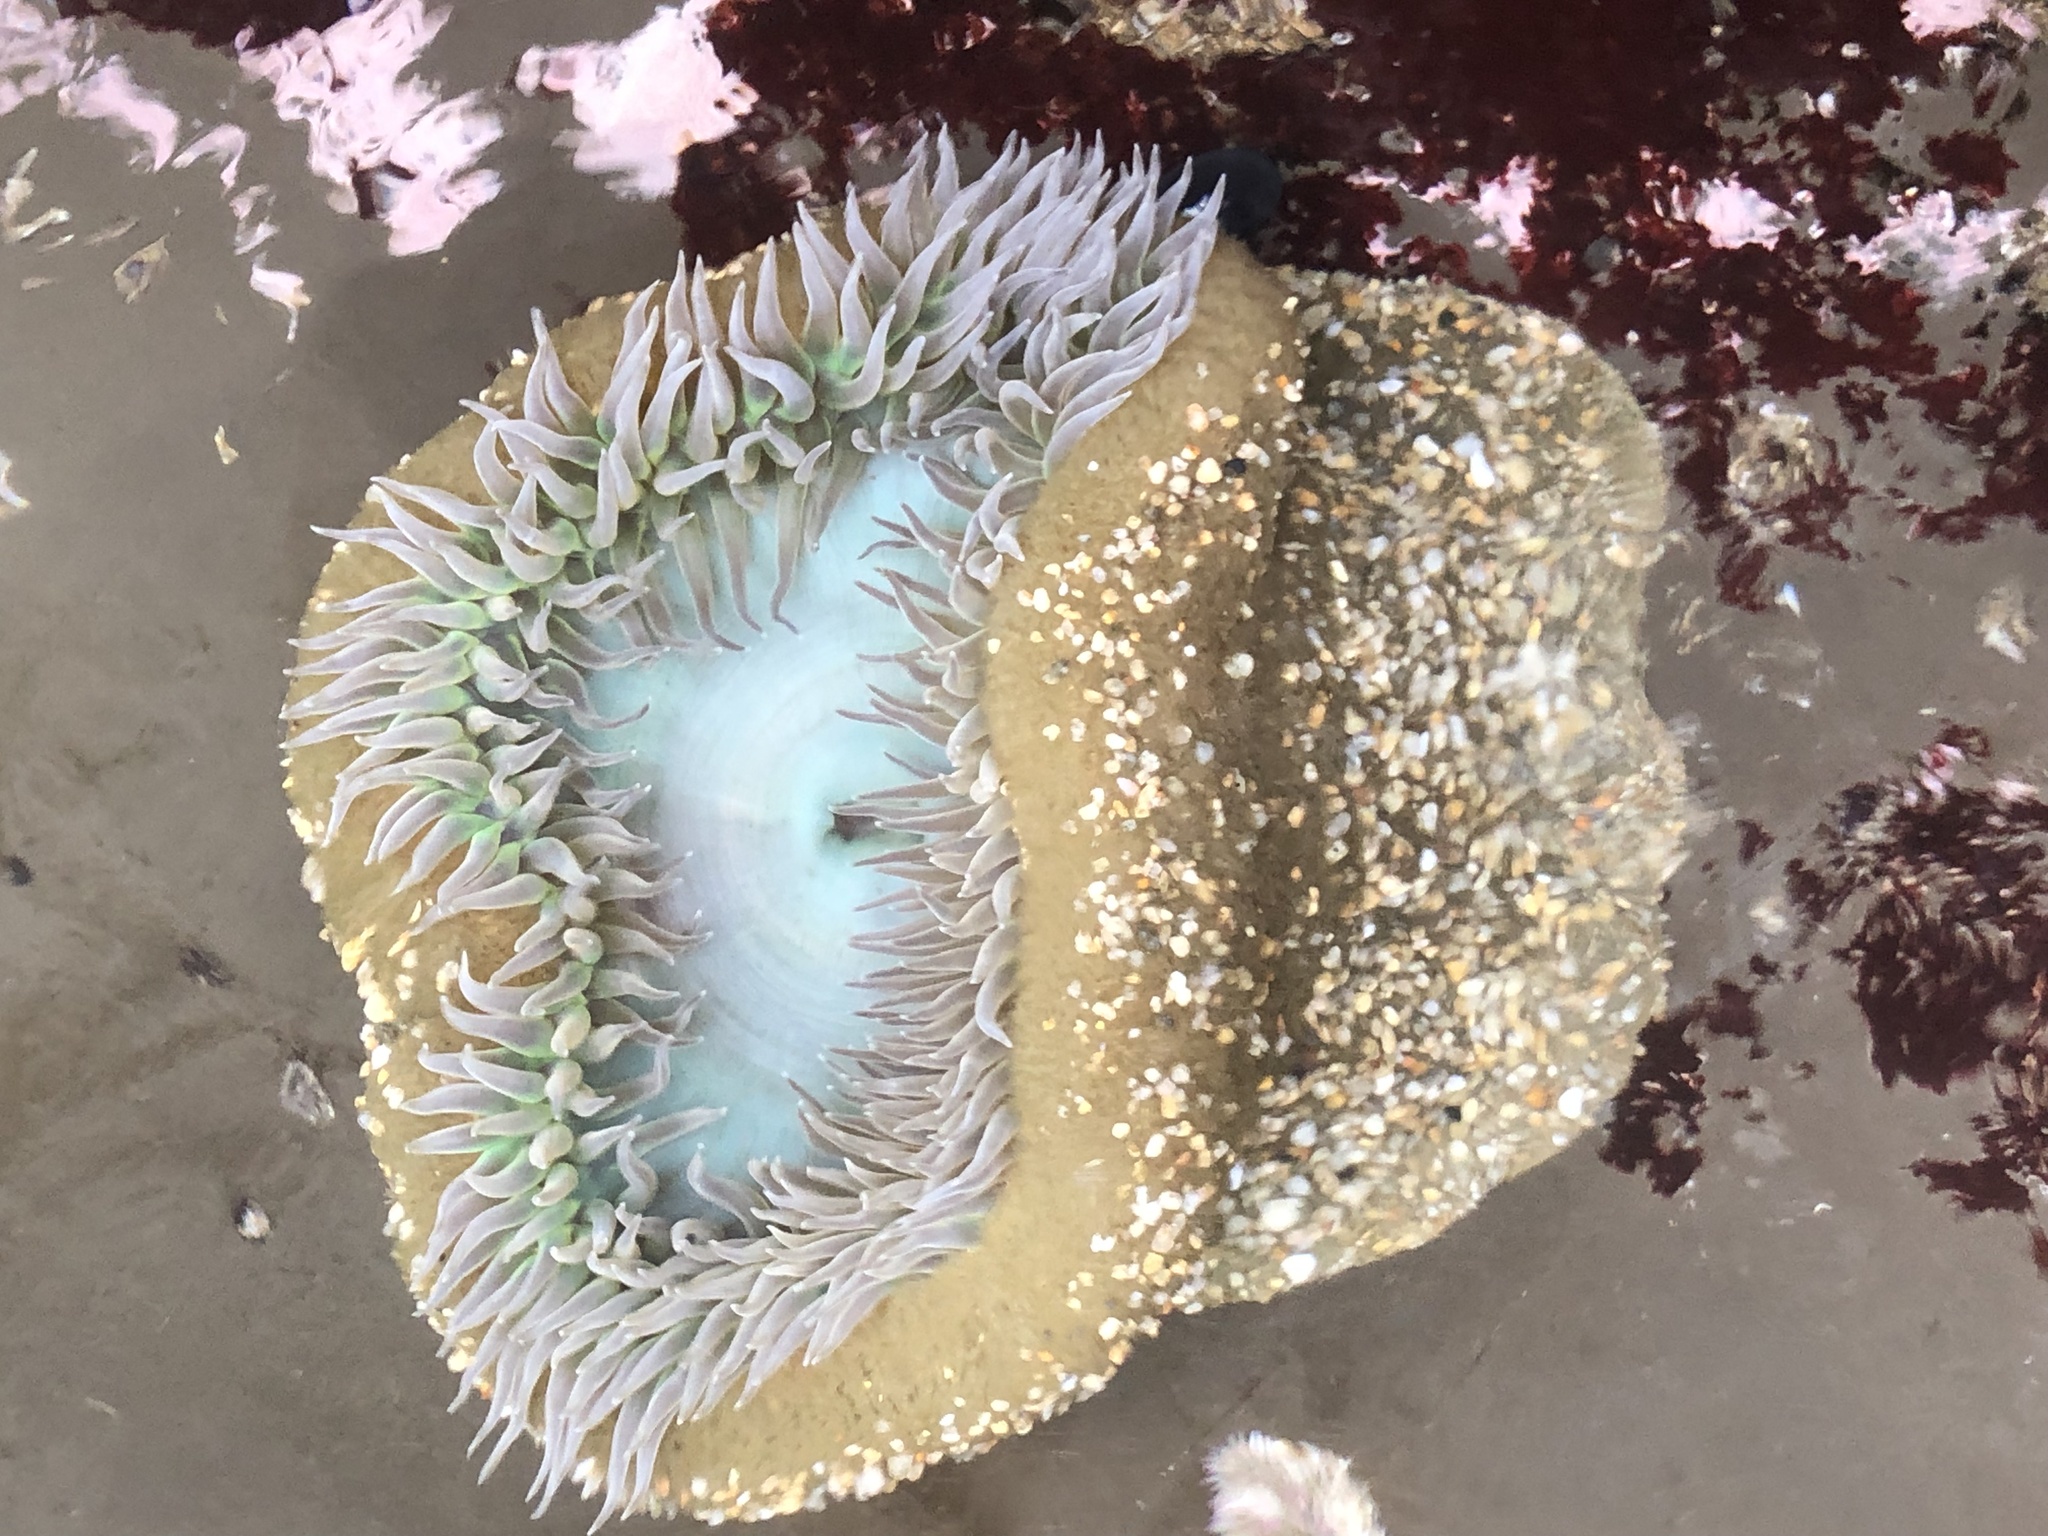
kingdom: Animalia
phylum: Cnidaria
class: Anthozoa
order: Actiniaria
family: Actiniidae
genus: Anthopleura
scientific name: Anthopleura xanthogrammica
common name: Giant green anemone
